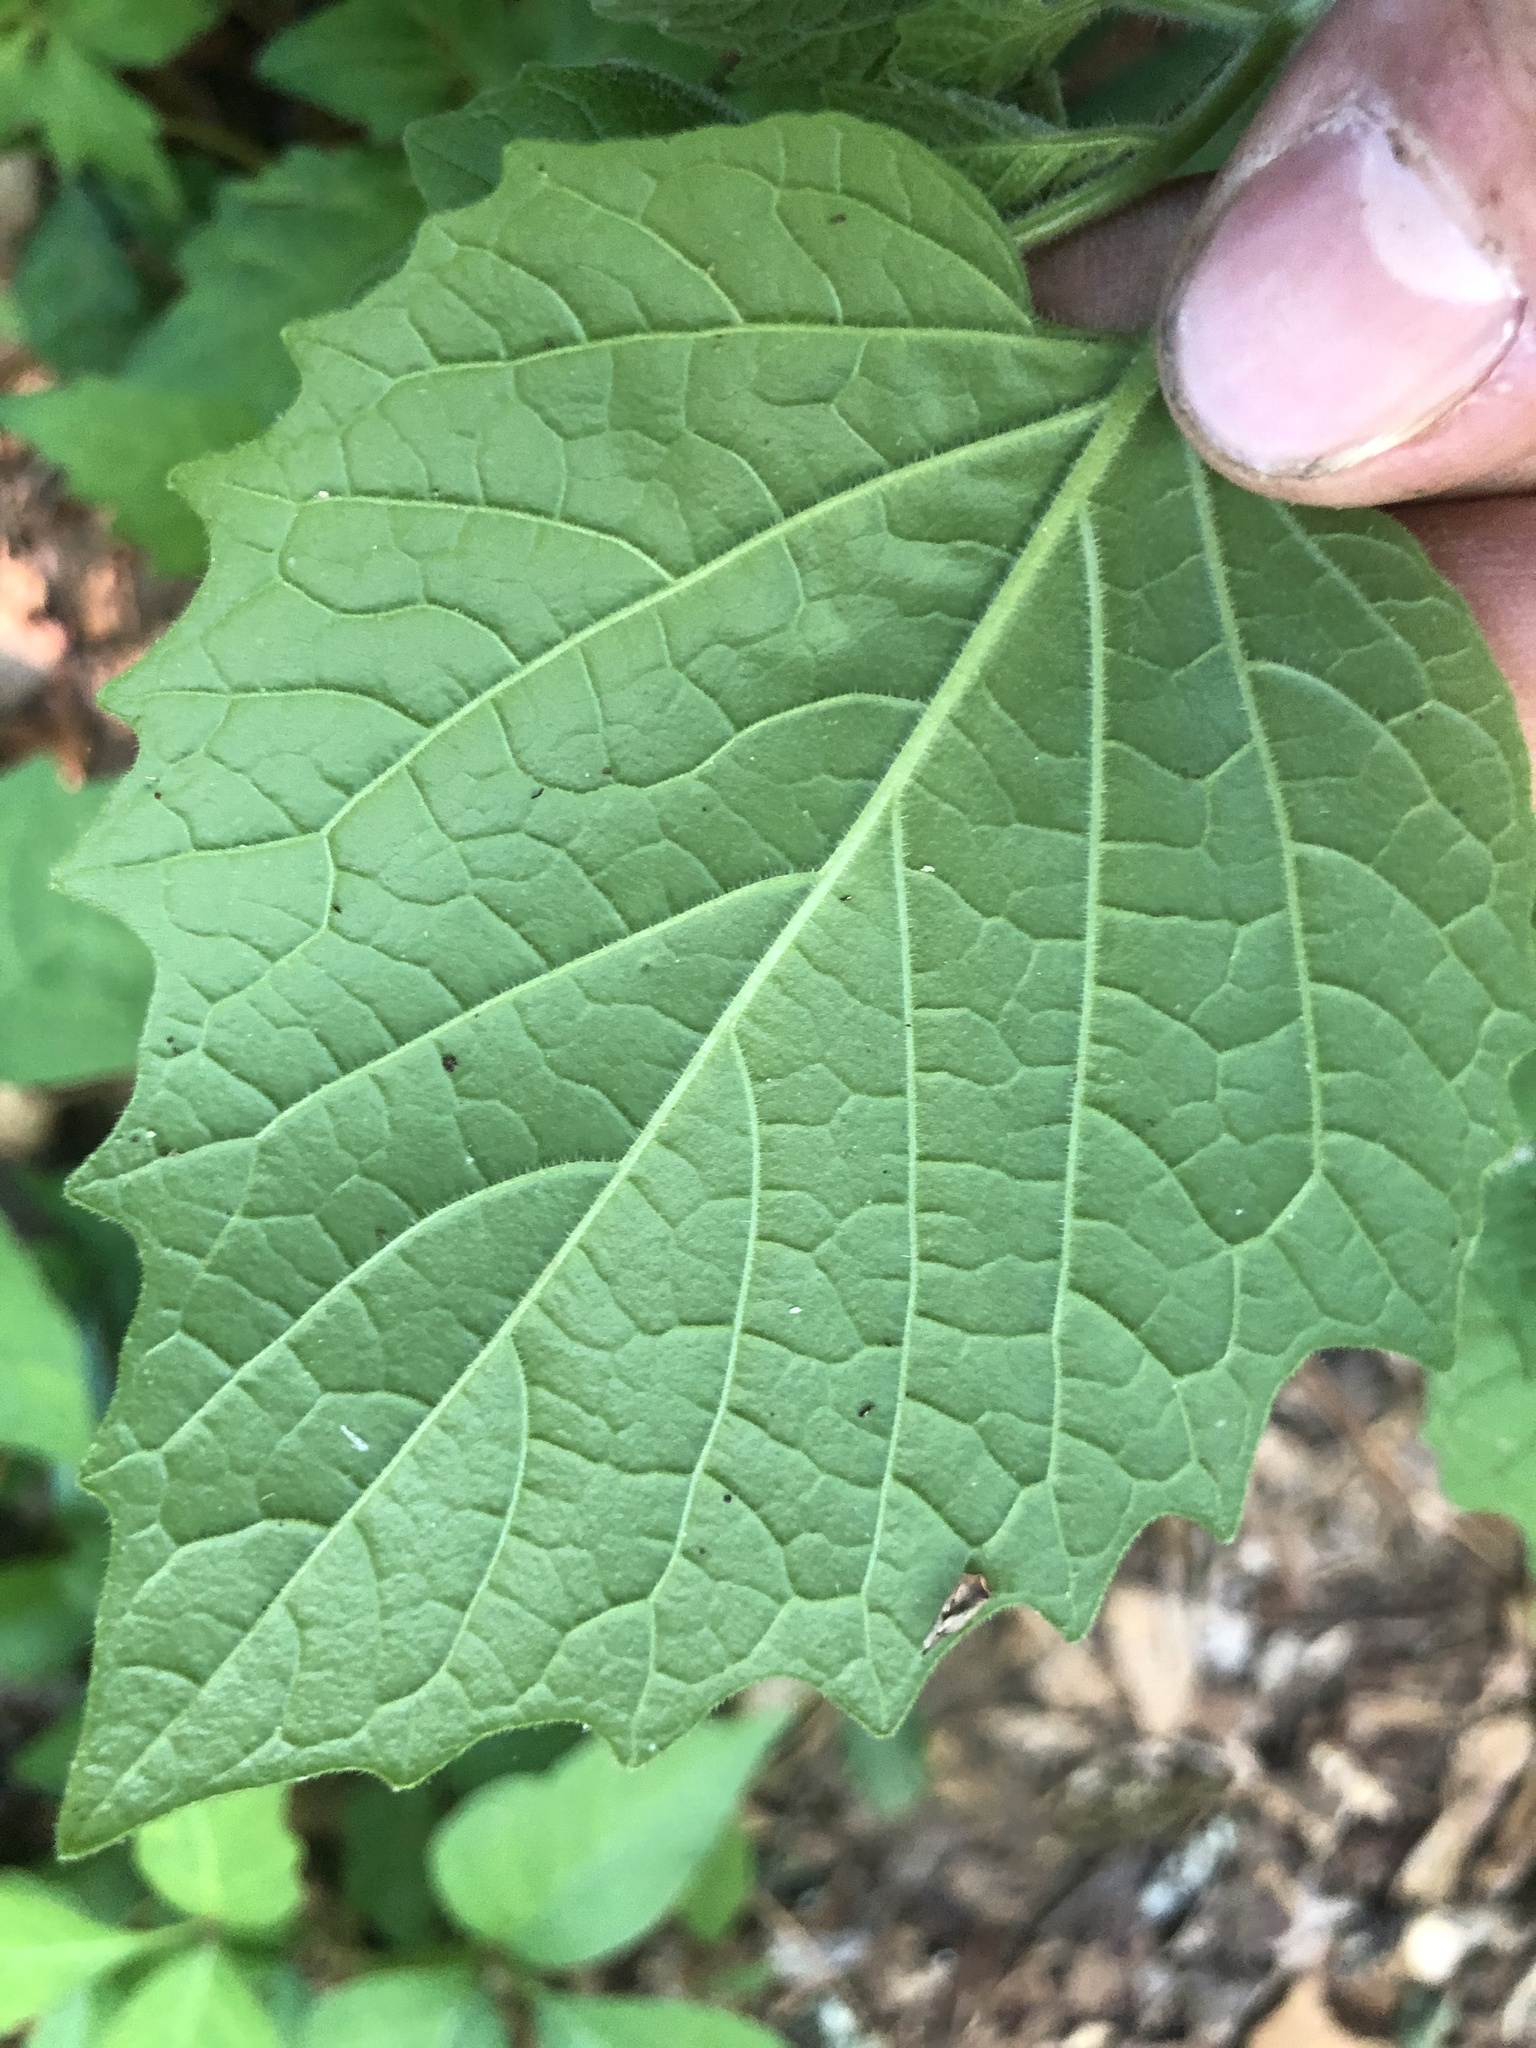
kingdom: Plantae
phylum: Tracheophyta
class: Magnoliopsida
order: Solanales
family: Solanaceae
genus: Physalis
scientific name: Physalis heterophylla
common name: Clammy ground-cherry
